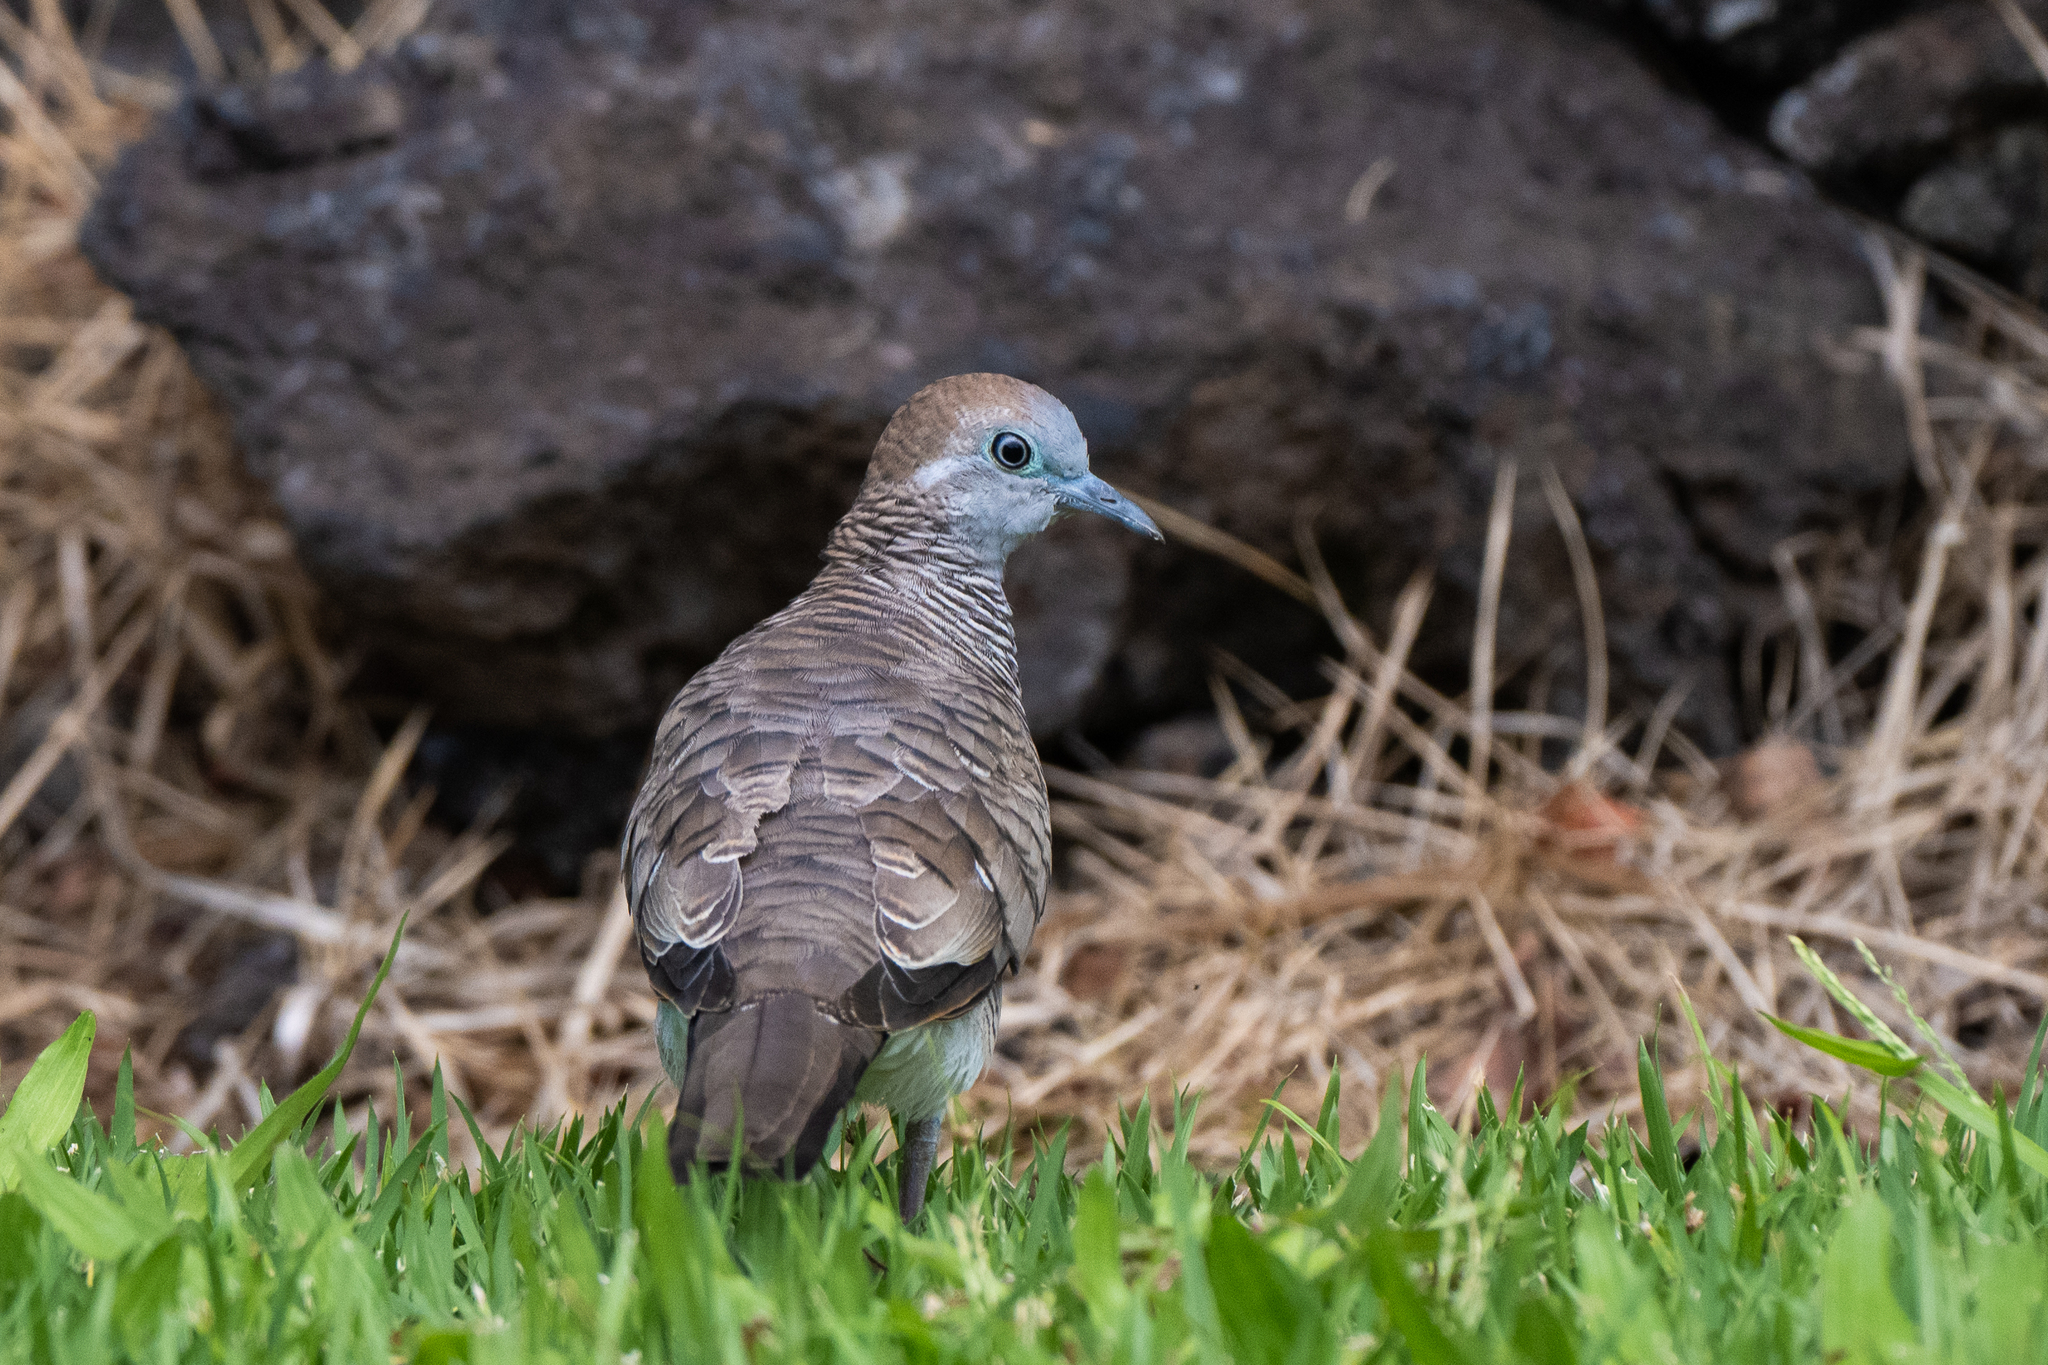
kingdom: Animalia
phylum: Chordata
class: Aves
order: Columbiformes
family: Columbidae
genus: Geopelia
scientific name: Geopelia striata
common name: Zebra dove
